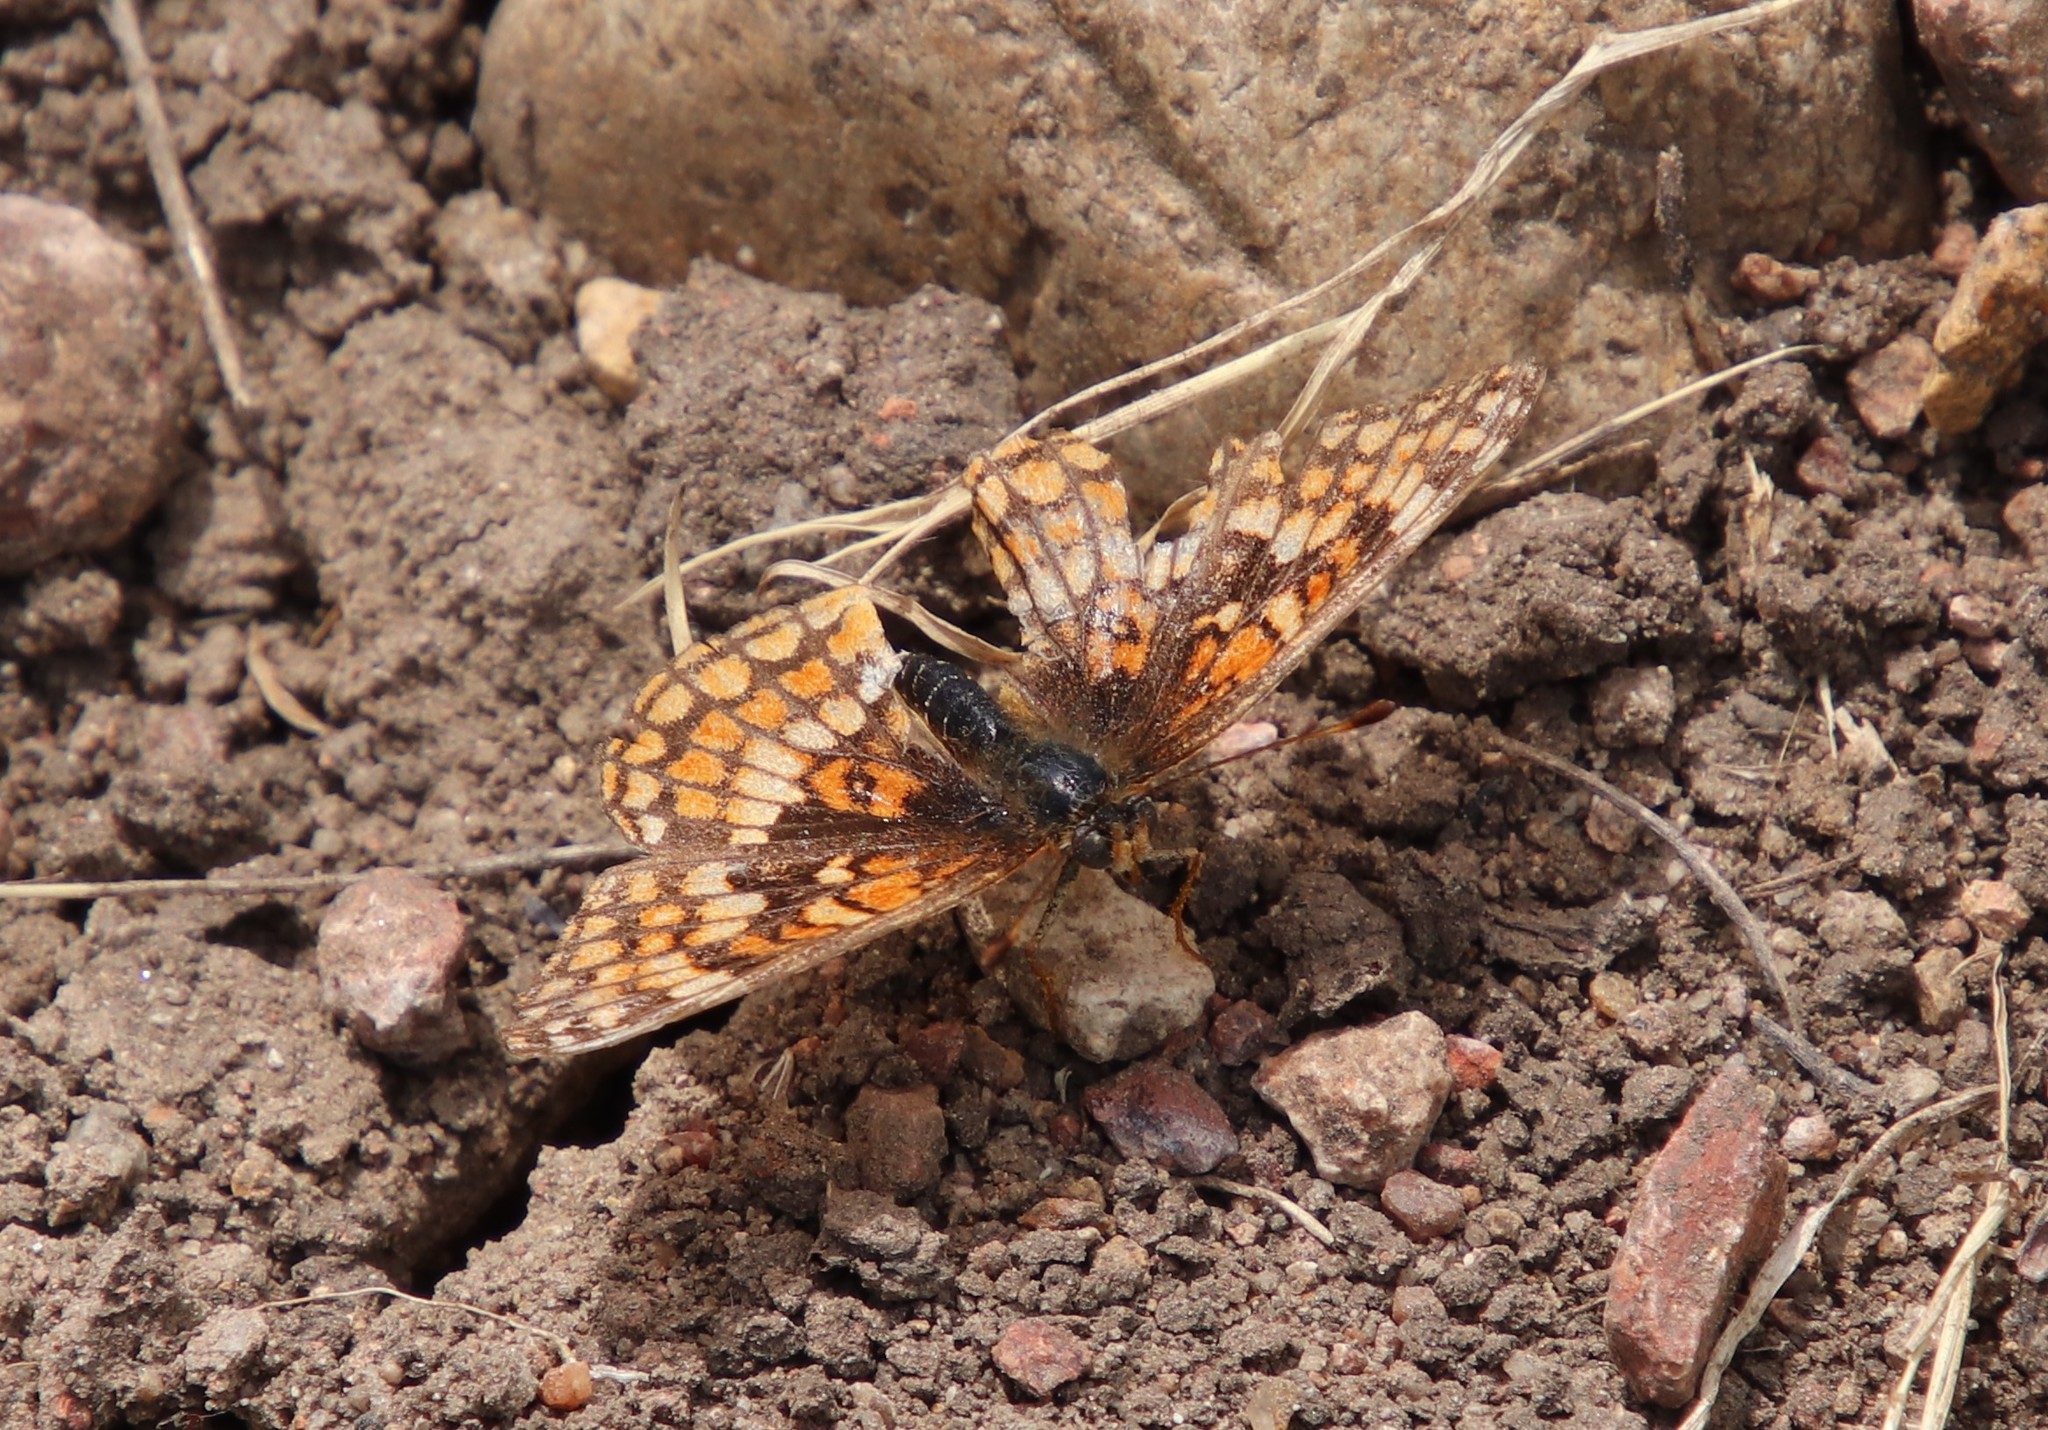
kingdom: Animalia
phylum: Arthropoda
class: Insecta
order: Lepidoptera
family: Nymphalidae
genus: Chlosyne
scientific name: Chlosyne gabbii
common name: Gabb's checkerspot
